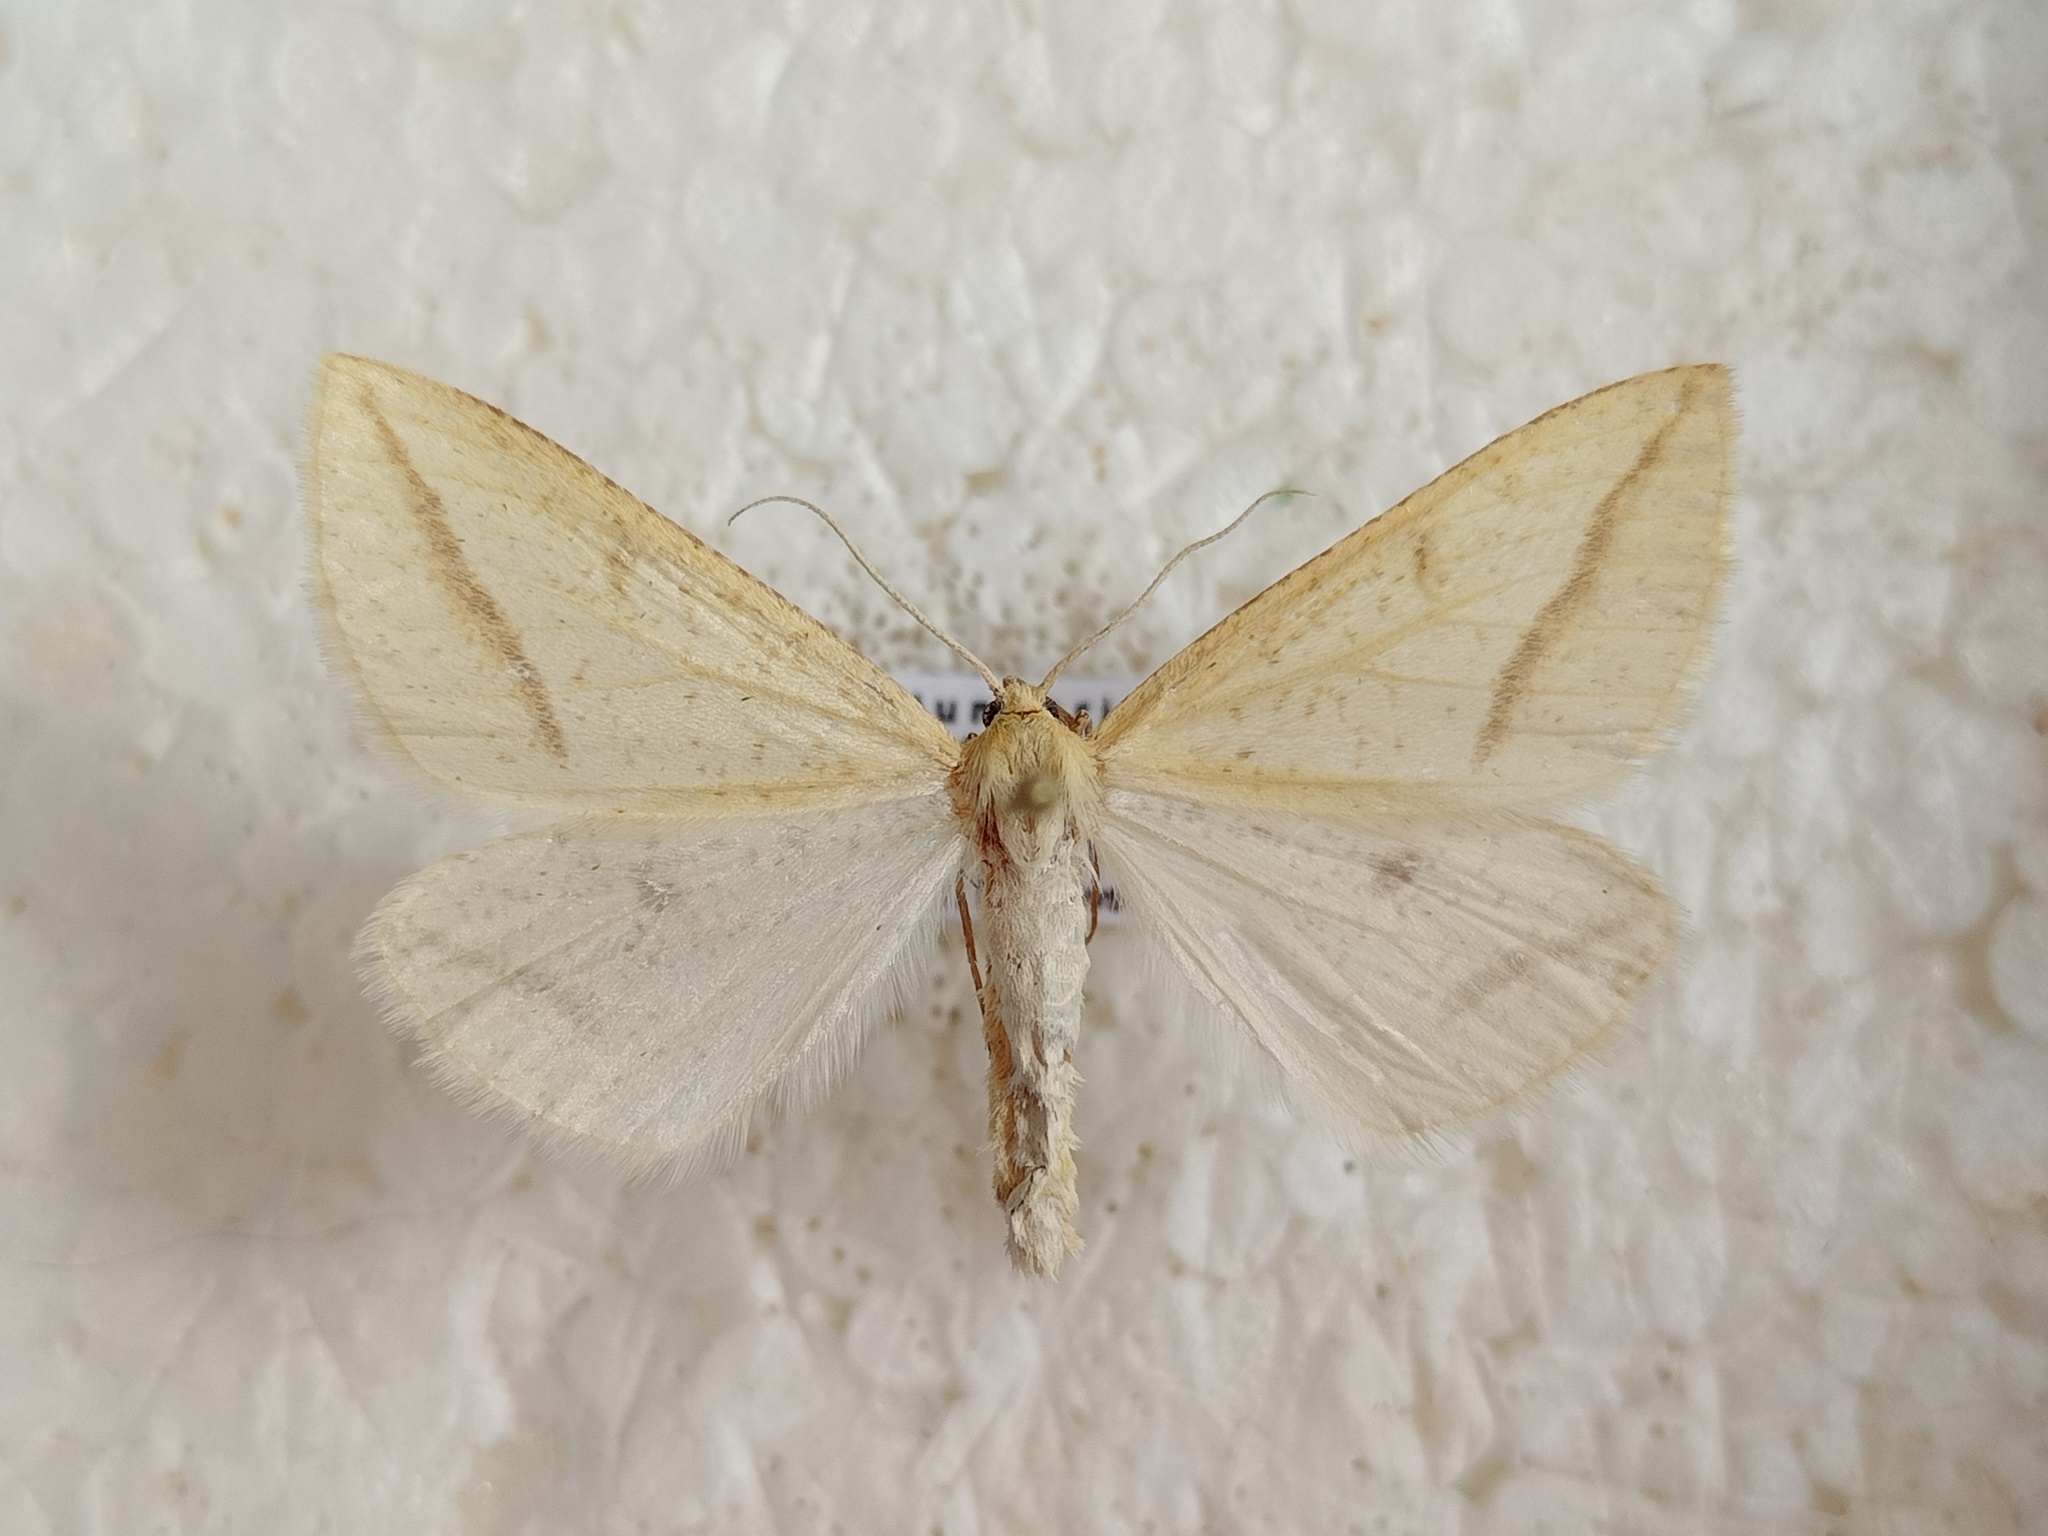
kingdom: Animalia
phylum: Arthropoda
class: Insecta
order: Lepidoptera
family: Geometridae
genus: Aspitates
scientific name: Aspitates gilvaria
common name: Straw belle
